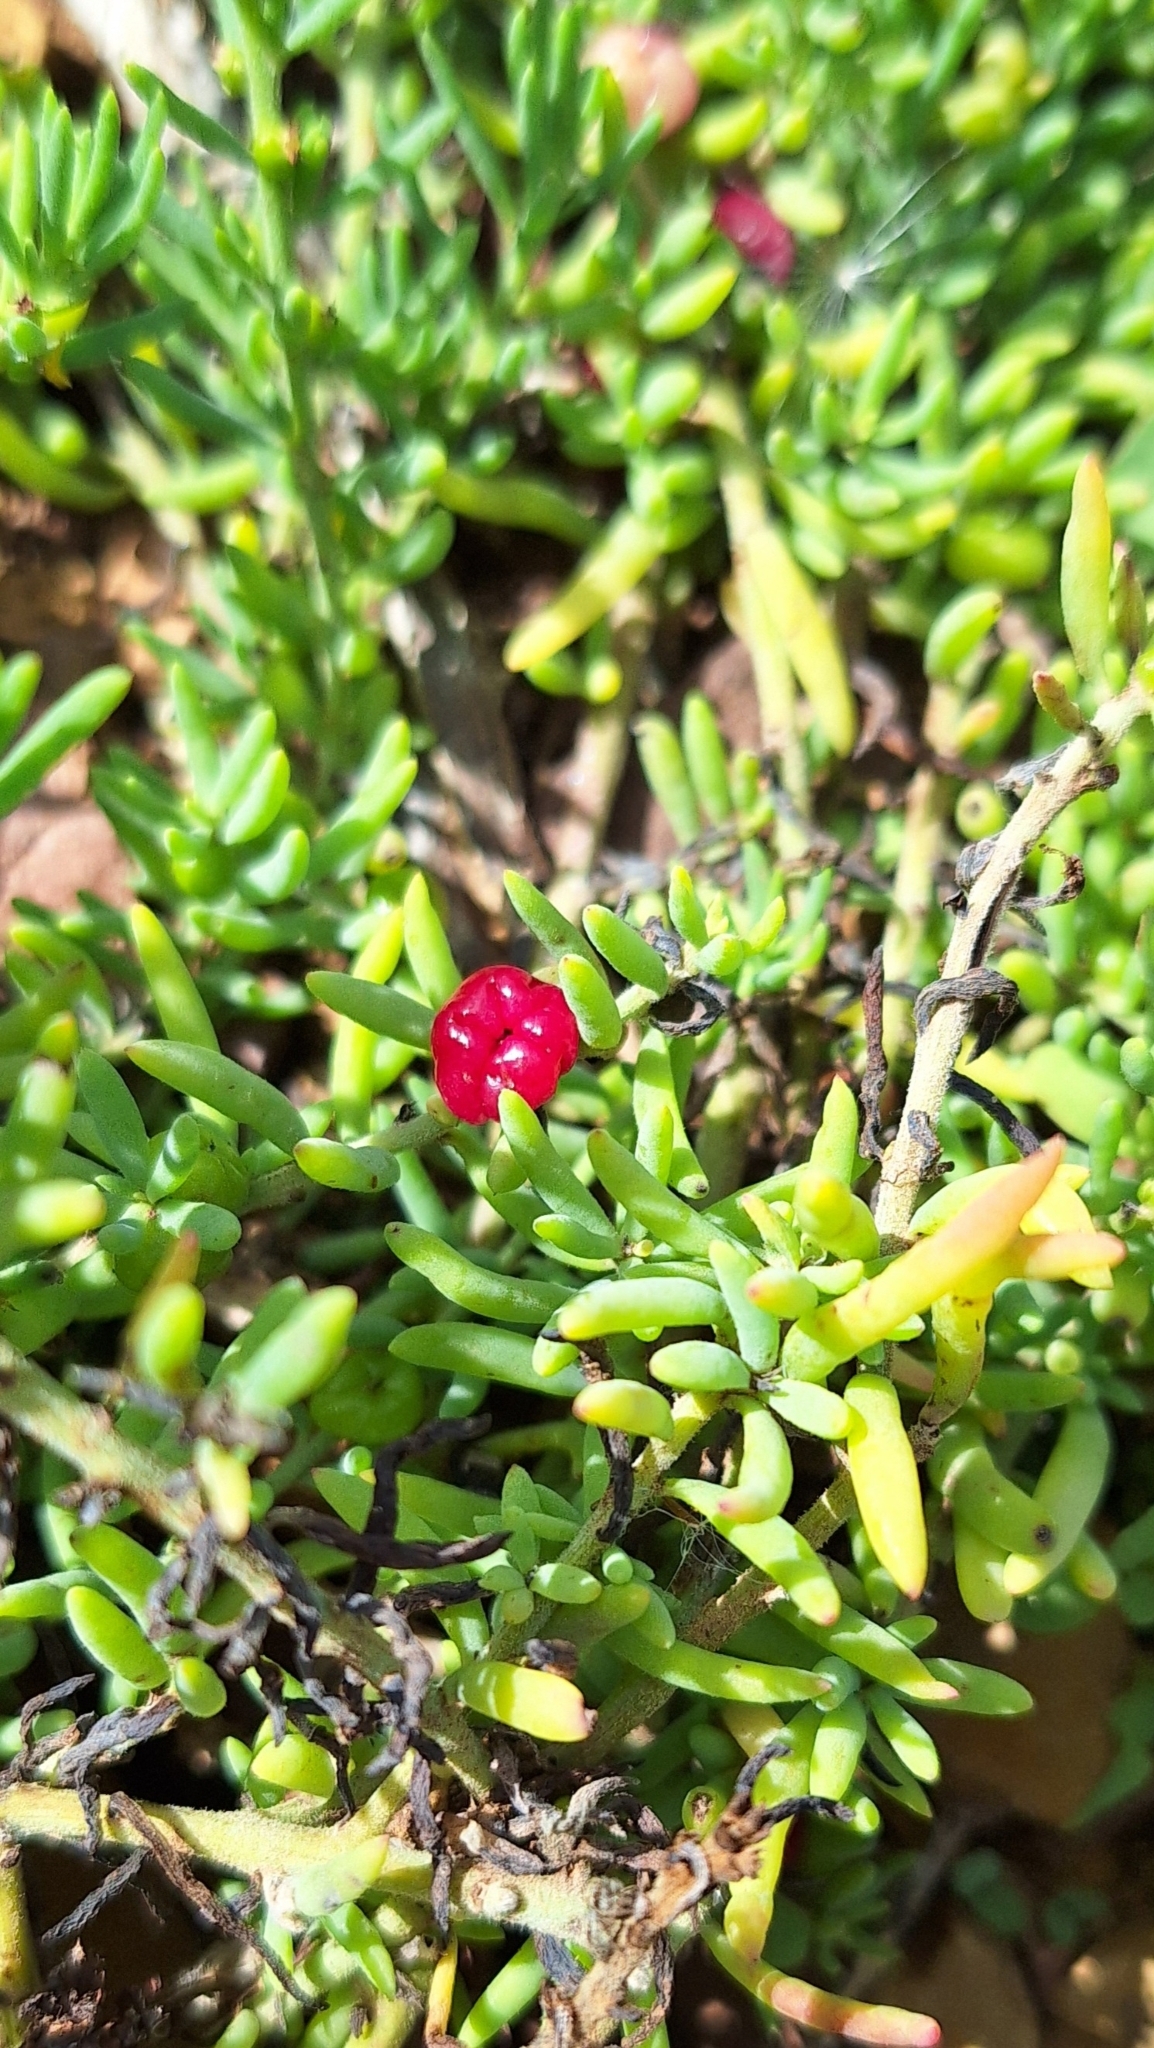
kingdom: Plantae
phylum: Tracheophyta
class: Magnoliopsida
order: Caryophyllales
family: Amaranthaceae
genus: Enchylaena
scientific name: Enchylaena tomentosa
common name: Ruby saltbush
